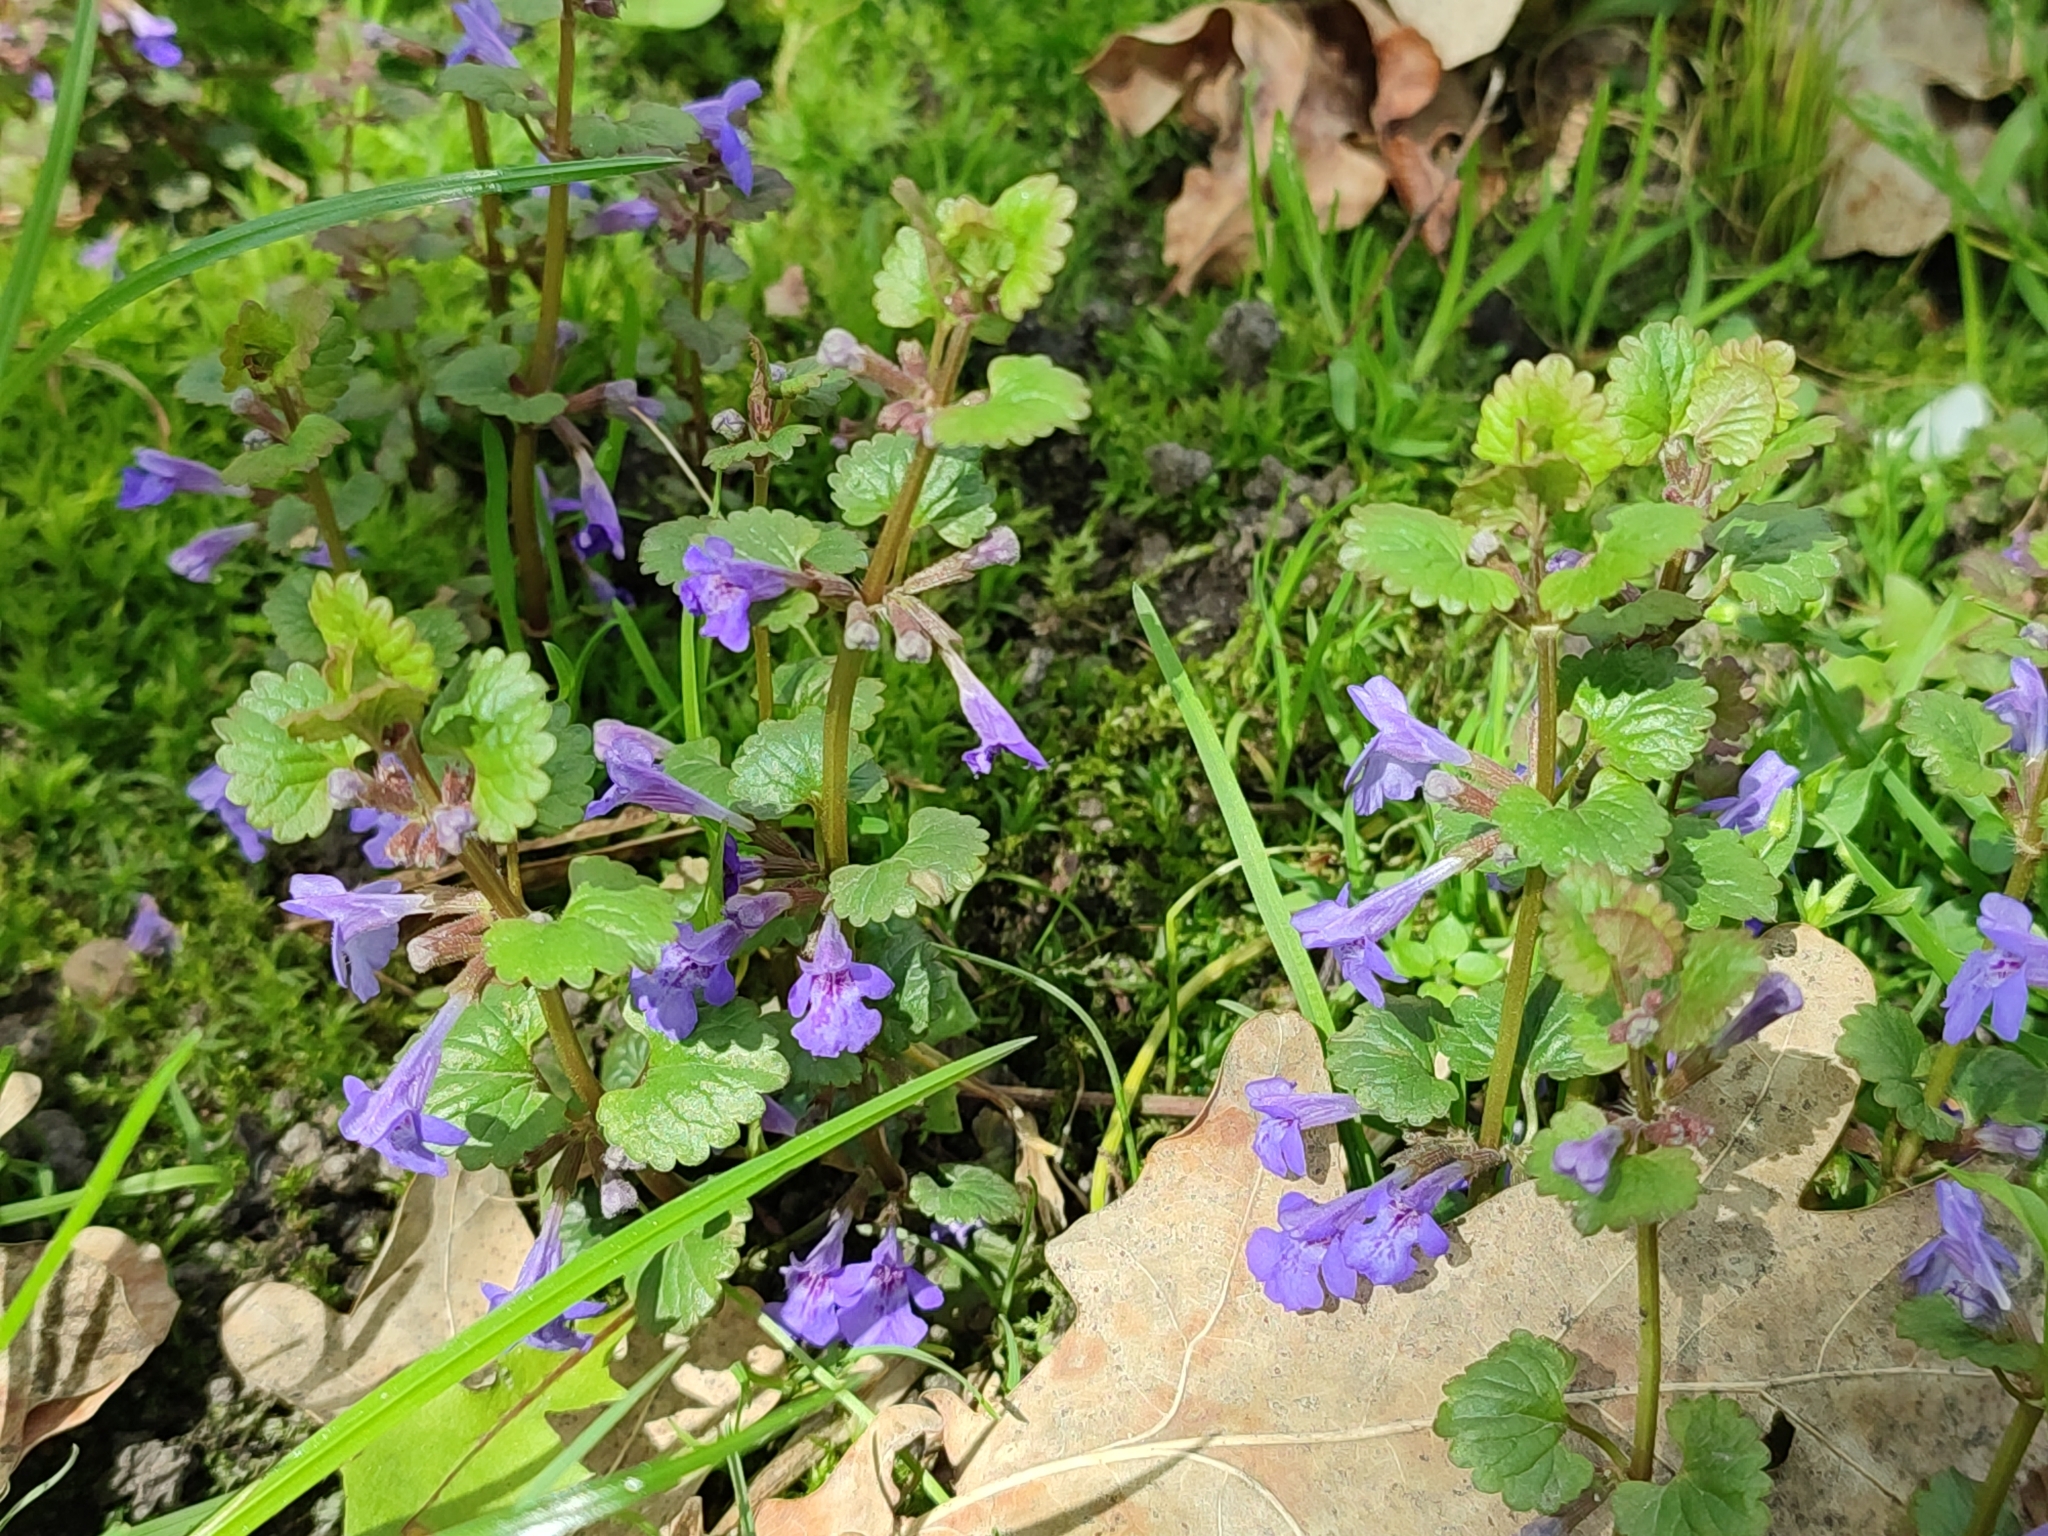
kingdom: Plantae
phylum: Tracheophyta
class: Magnoliopsida
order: Lamiales
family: Lamiaceae
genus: Glechoma
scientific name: Glechoma hederacea
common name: Ground ivy
